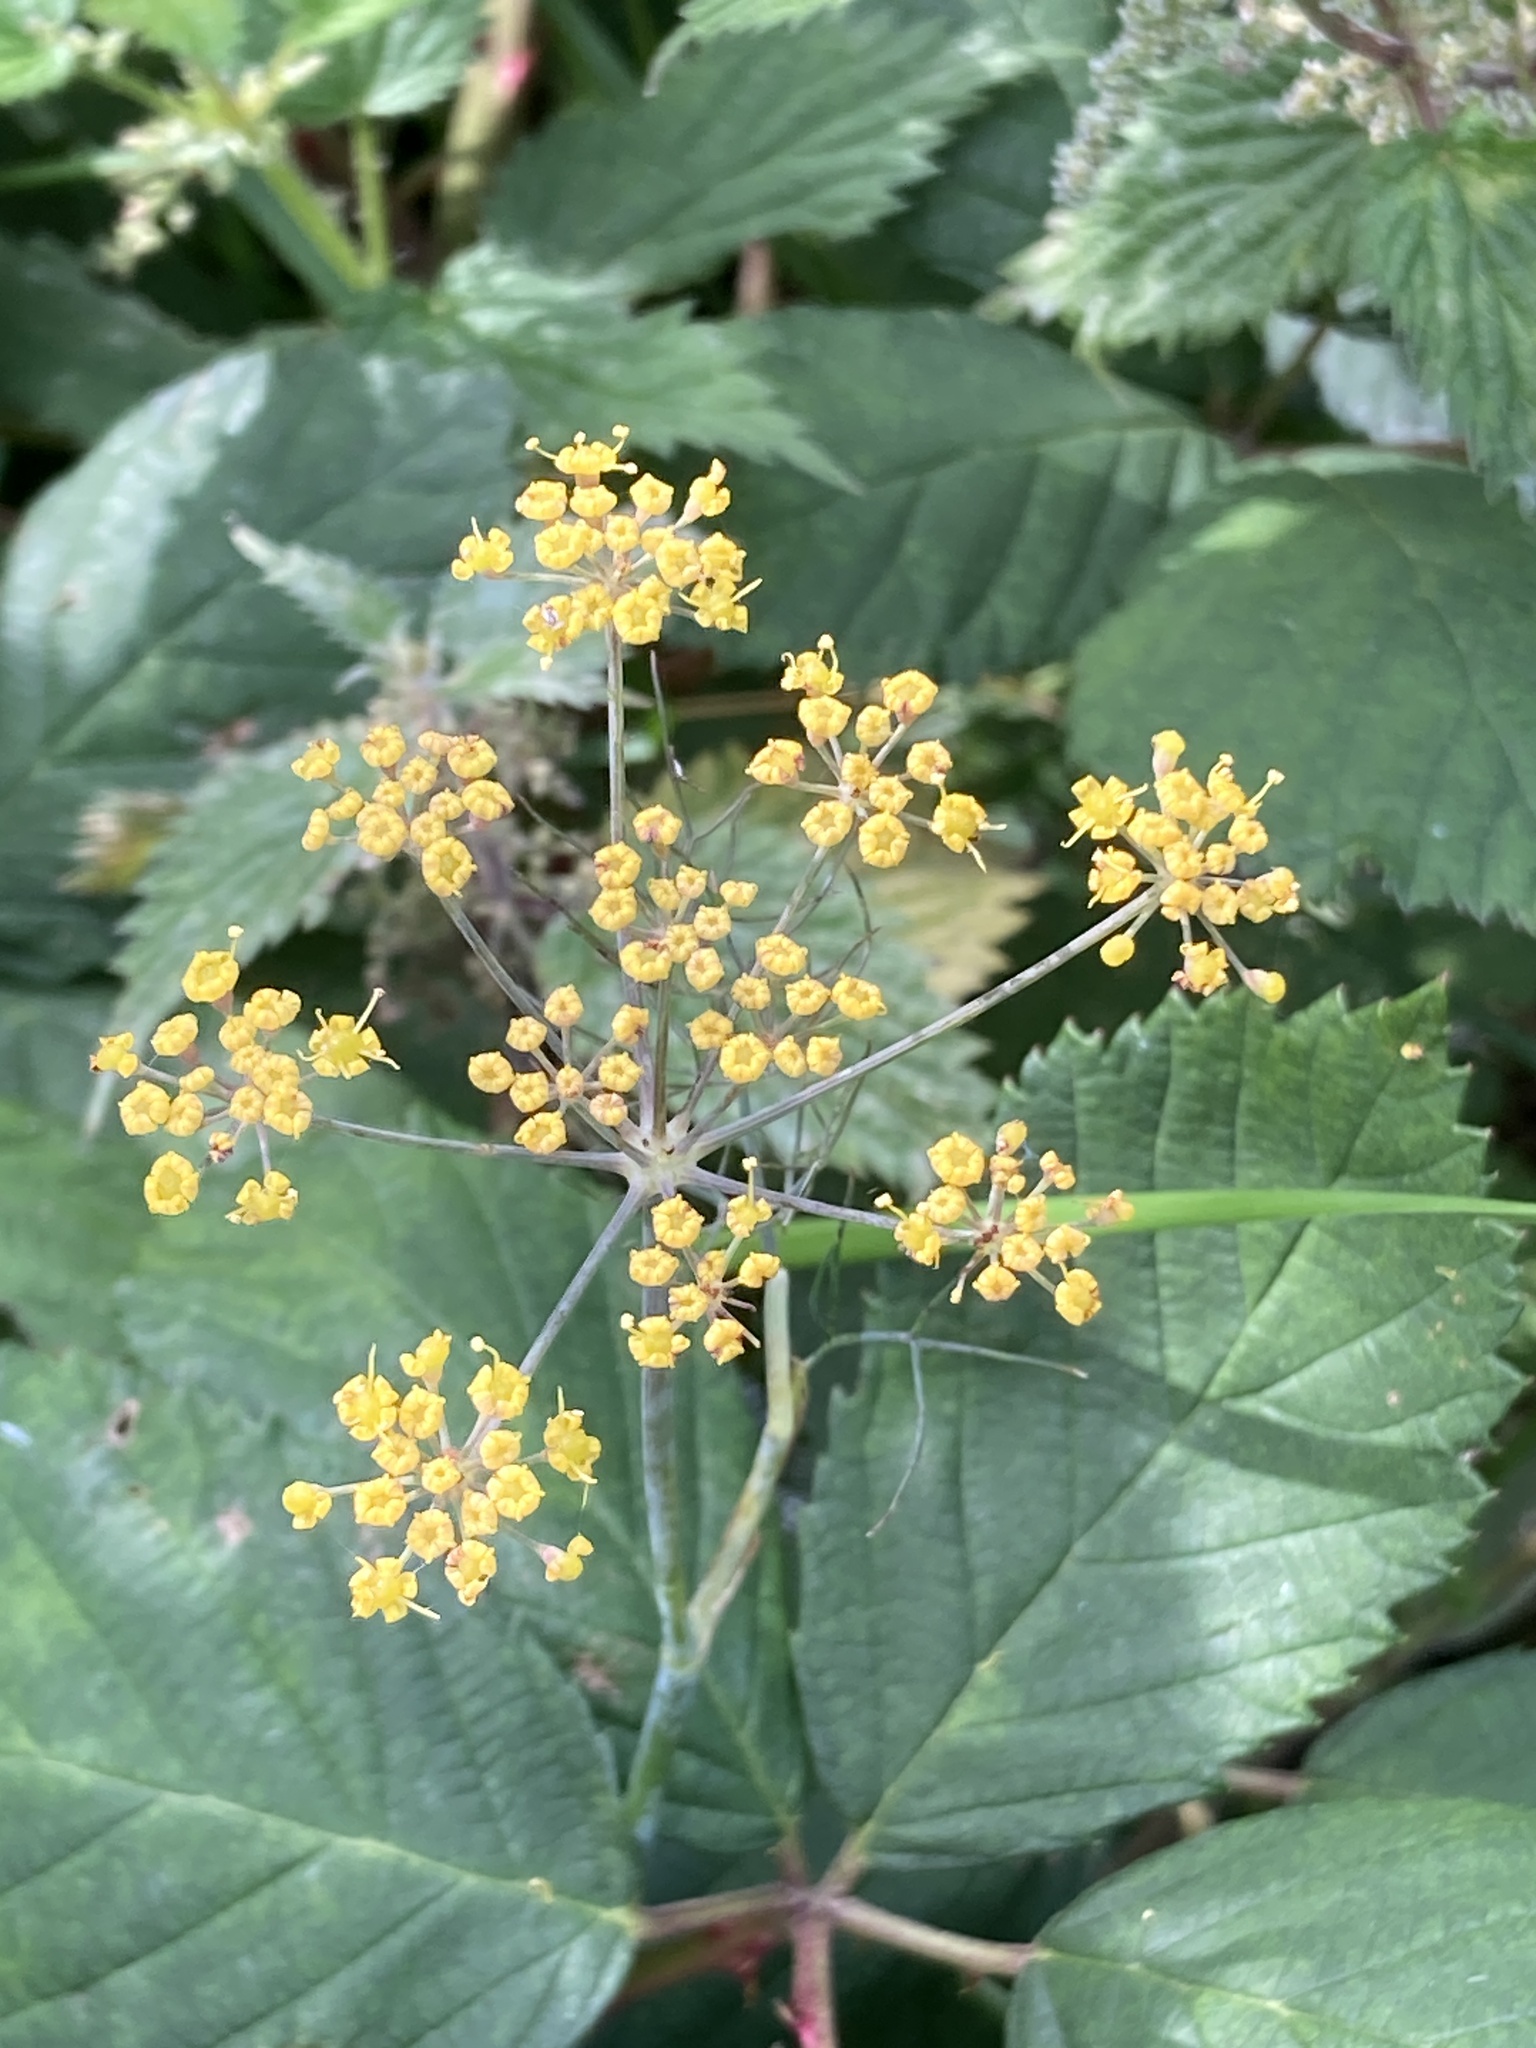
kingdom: Plantae
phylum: Tracheophyta
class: Magnoliopsida
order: Apiales
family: Apiaceae
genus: Foeniculum
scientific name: Foeniculum vulgare
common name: Fennel
